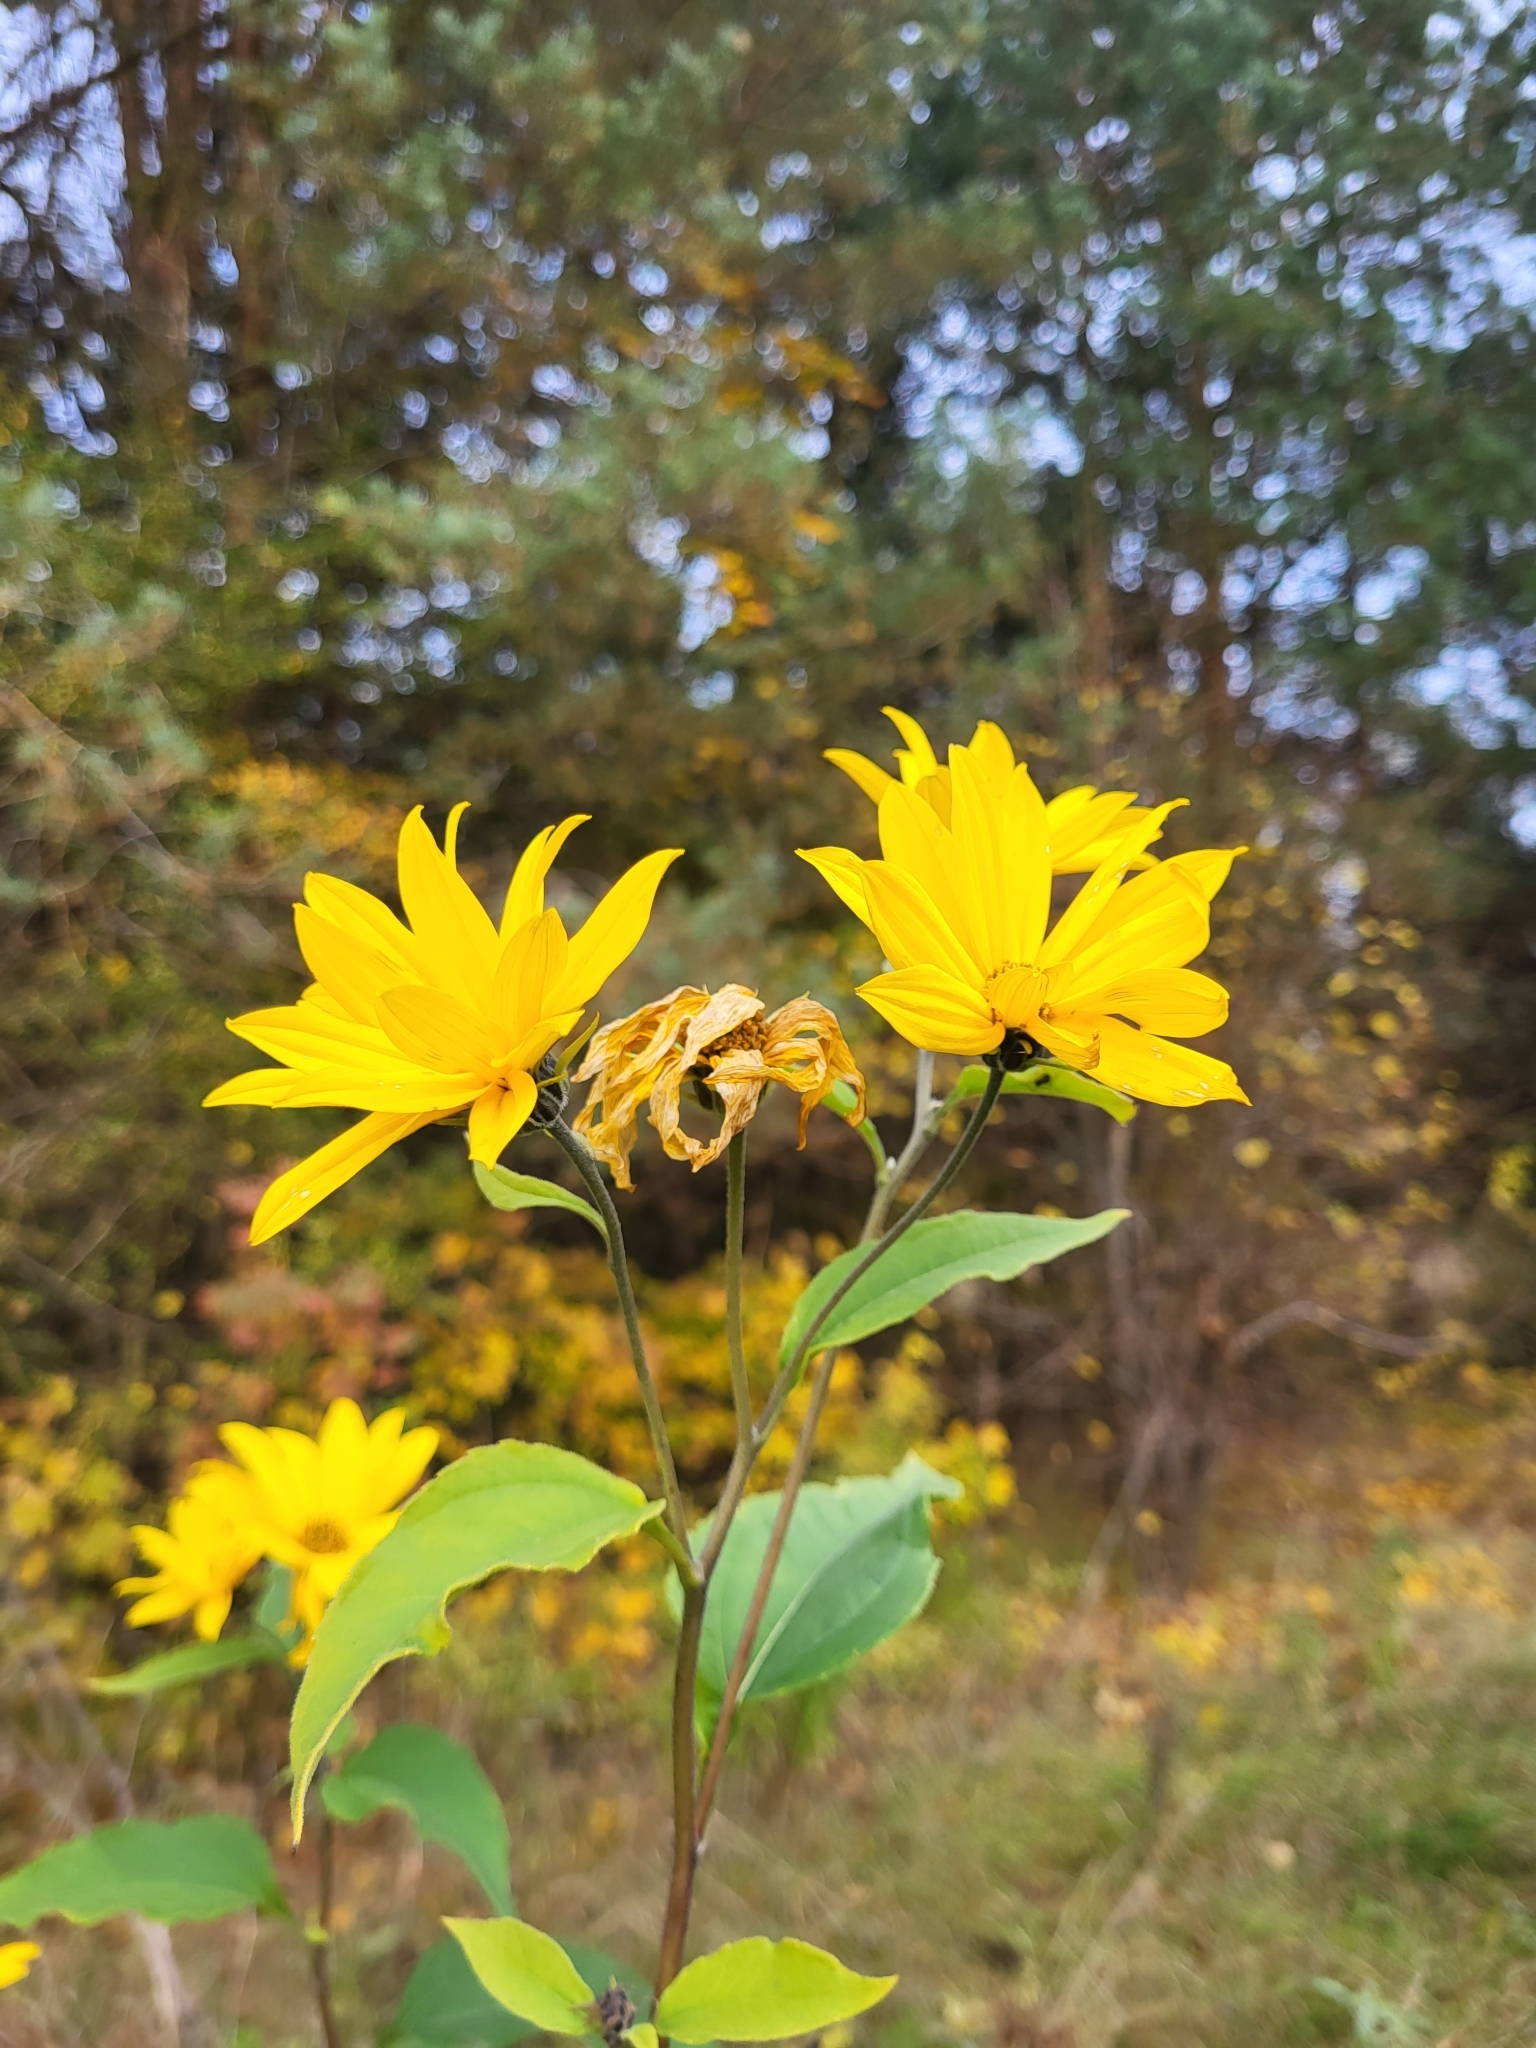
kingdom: Plantae
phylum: Tracheophyta
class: Magnoliopsida
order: Asterales
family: Asteraceae
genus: Helianthus
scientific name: Helianthus tuberosus
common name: Jerusalem artichoke
